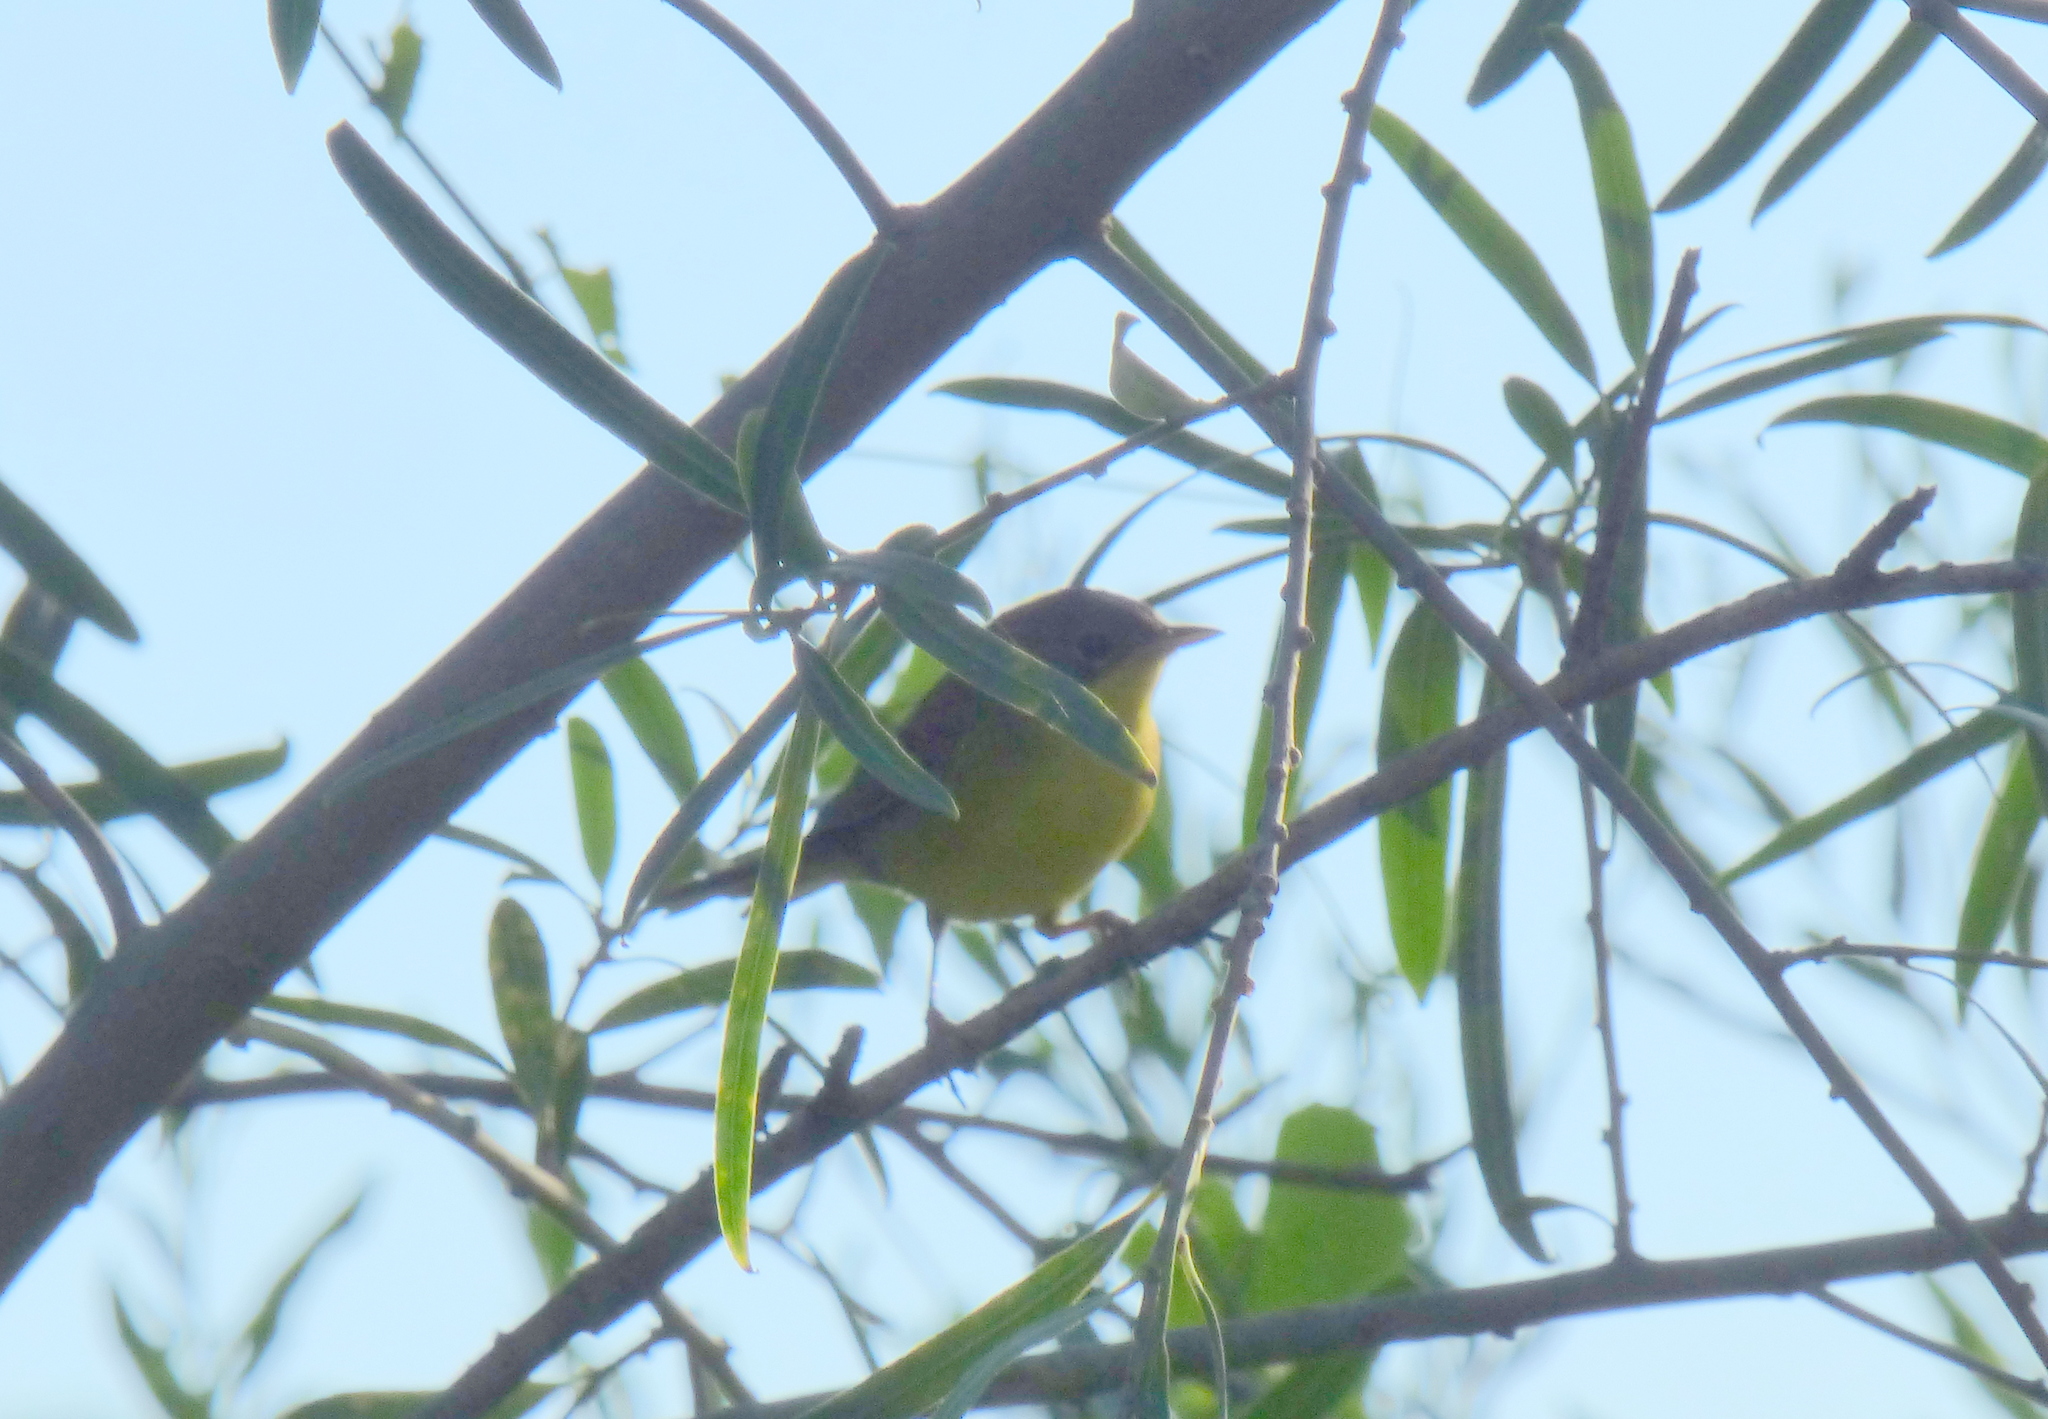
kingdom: Animalia
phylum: Chordata
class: Aves
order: Passeriformes
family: Parulidae
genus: Geothlypis
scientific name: Geothlypis velata
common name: Southern yellowthroat
